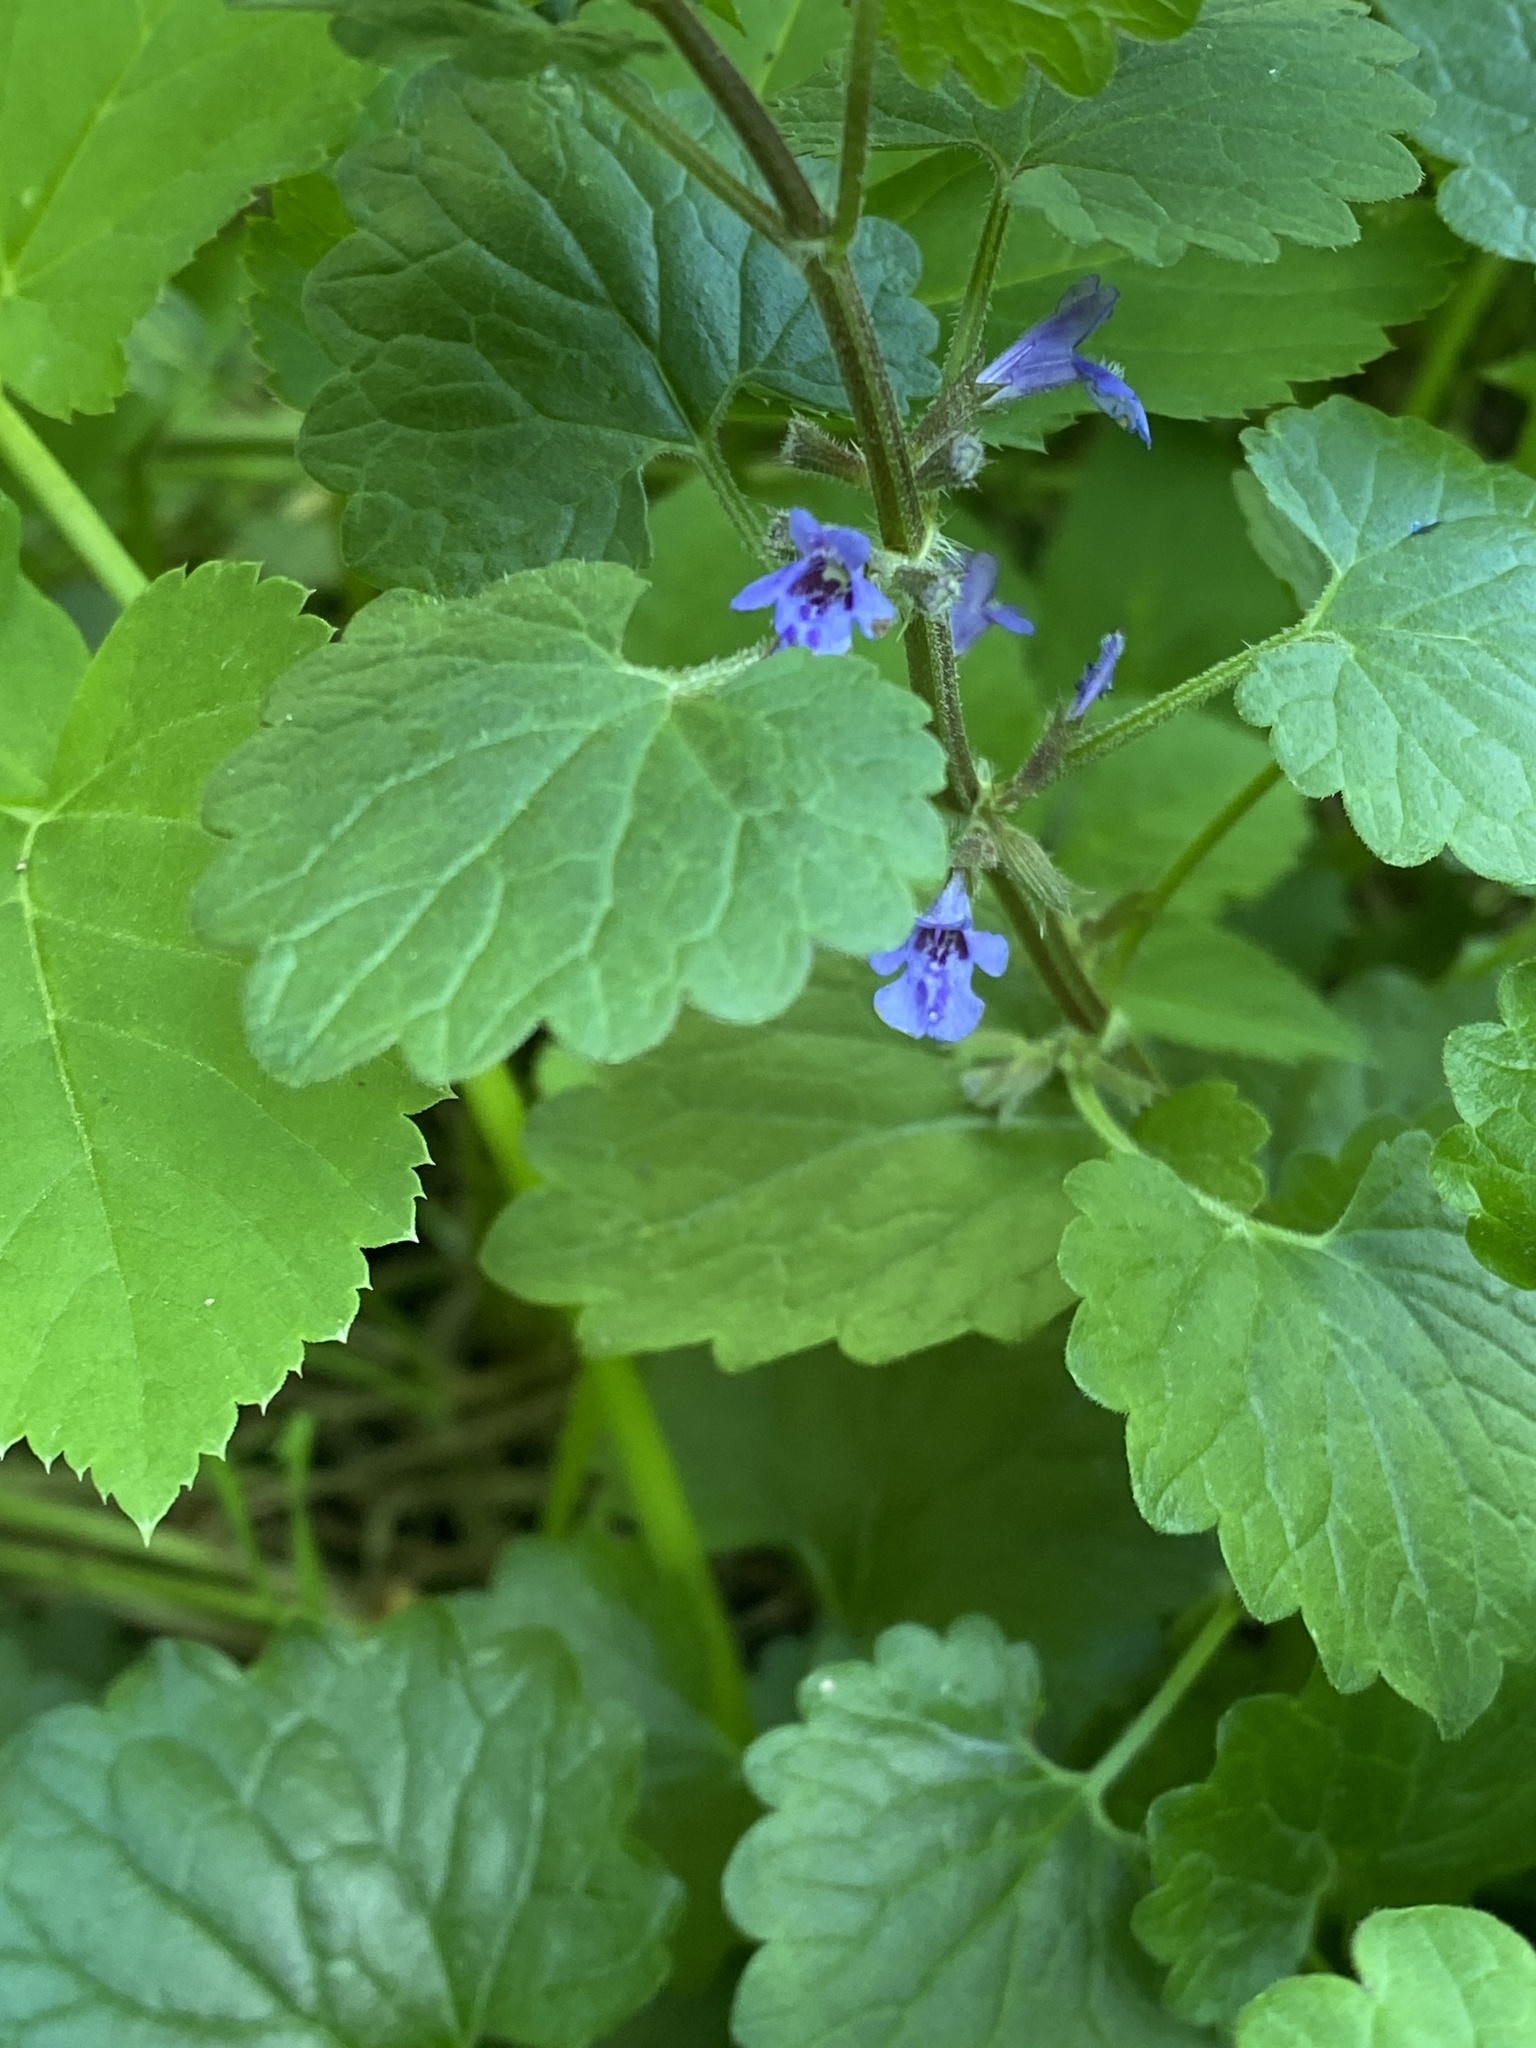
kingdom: Plantae
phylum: Tracheophyta
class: Magnoliopsida
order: Lamiales
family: Lamiaceae
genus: Glechoma
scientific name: Glechoma hederacea
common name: Ground ivy
